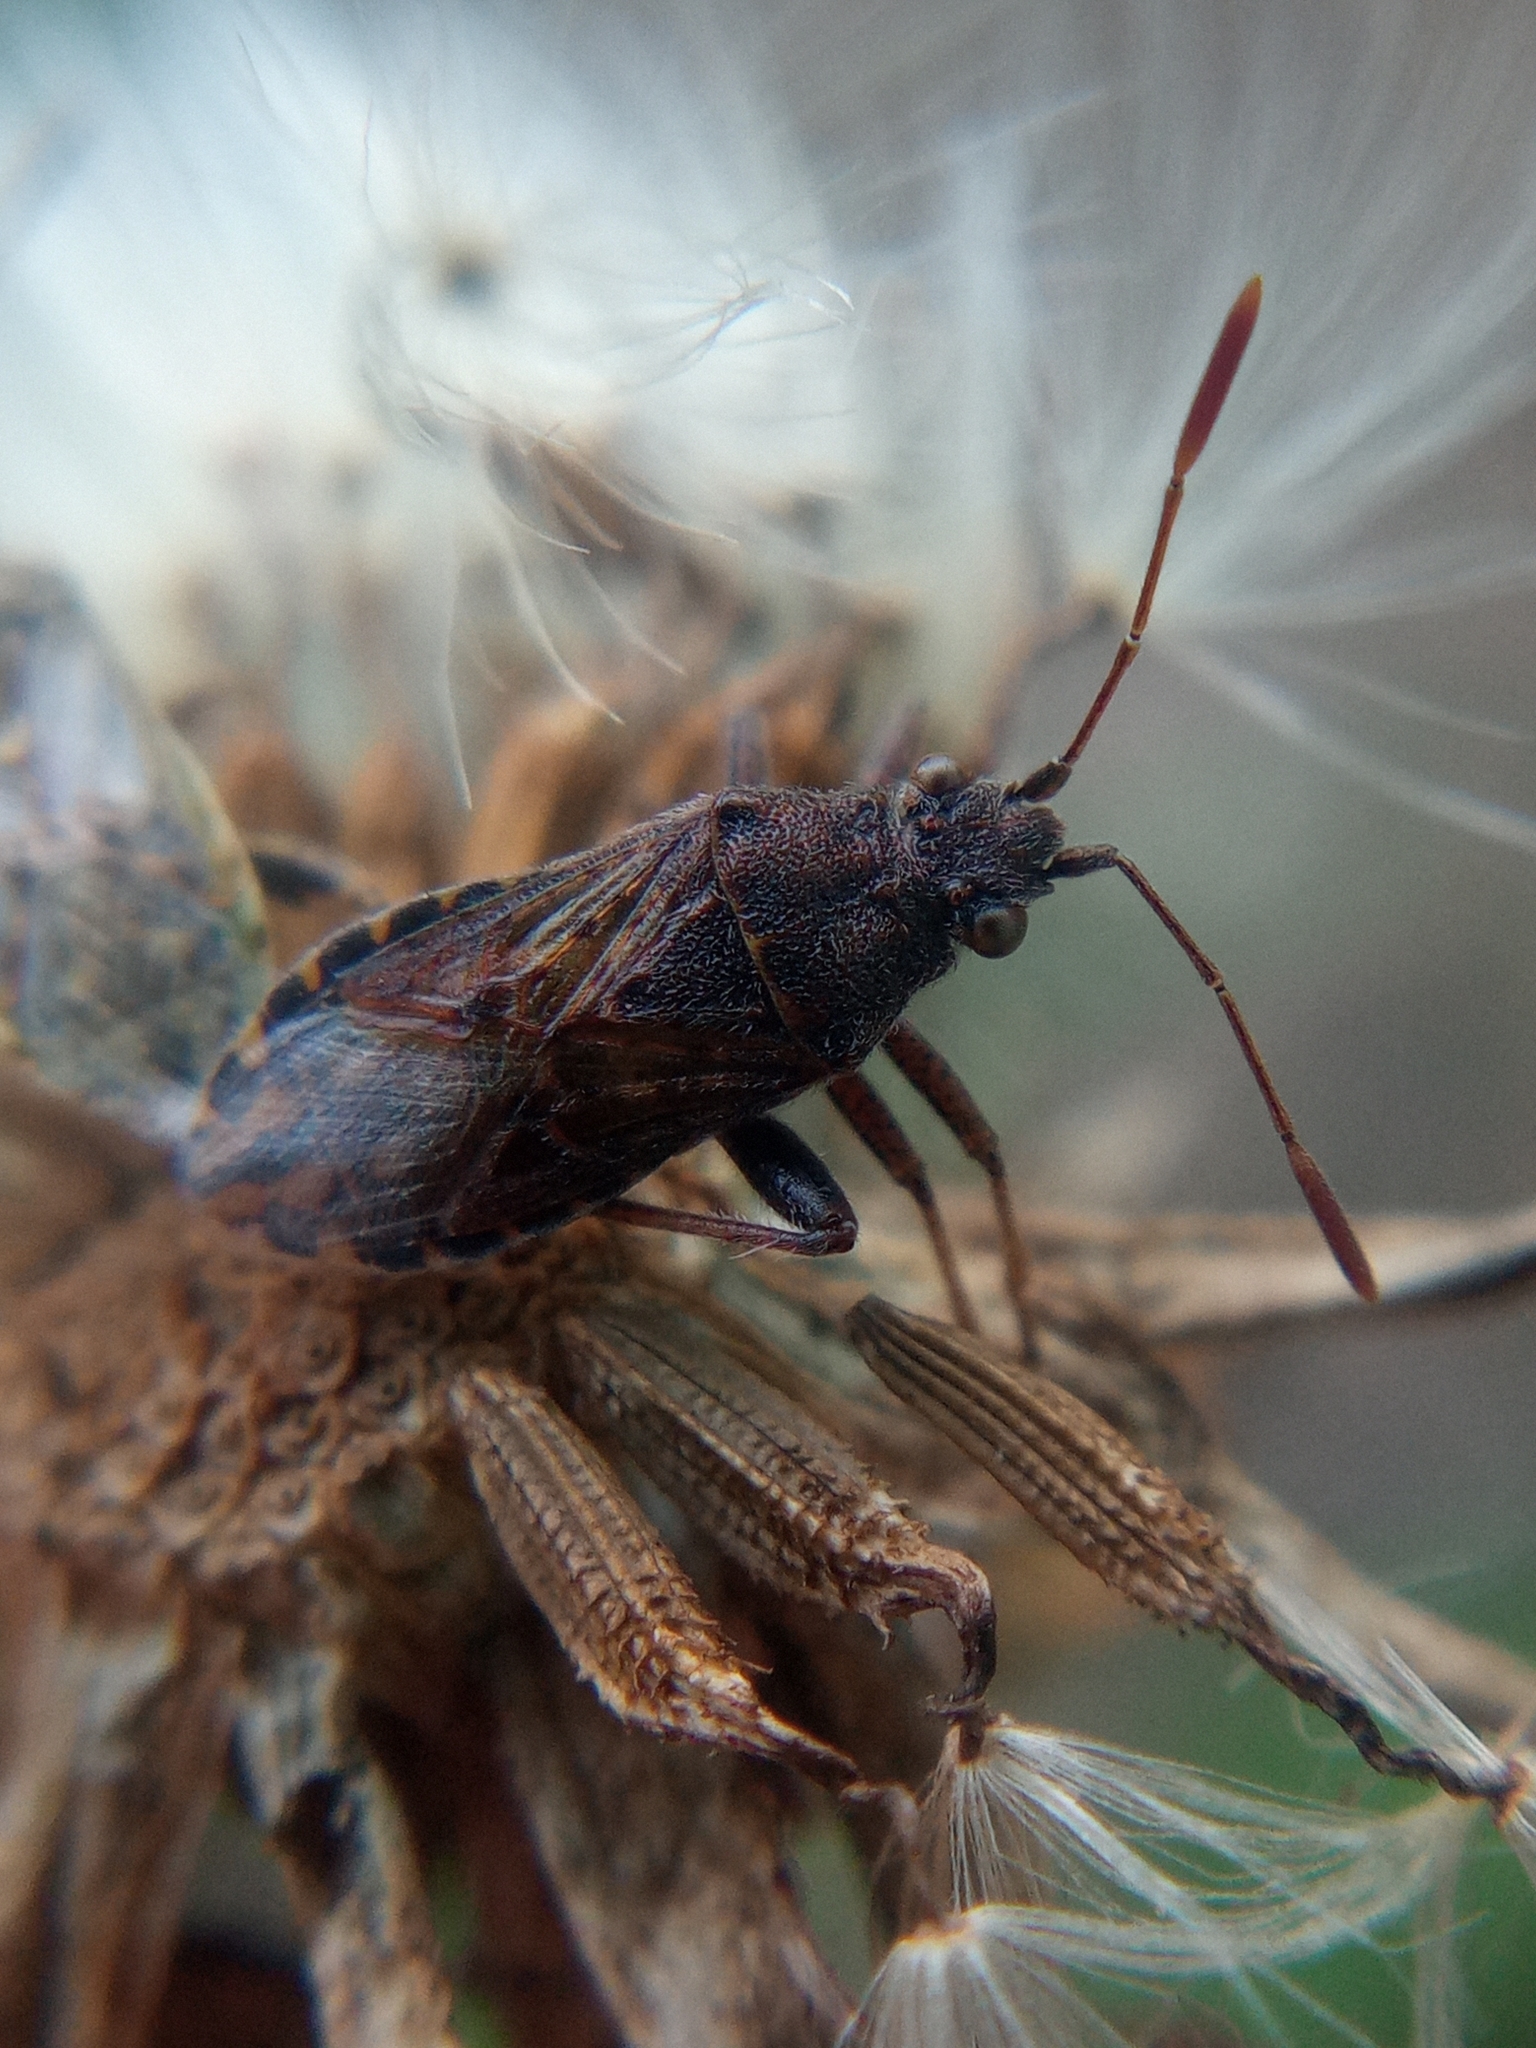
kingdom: Animalia
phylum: Arthropoda
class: Insecta
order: Hemiptera
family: Rhopalidae
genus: Stictopleurus
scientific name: Stictopleurus punctatonervosus
